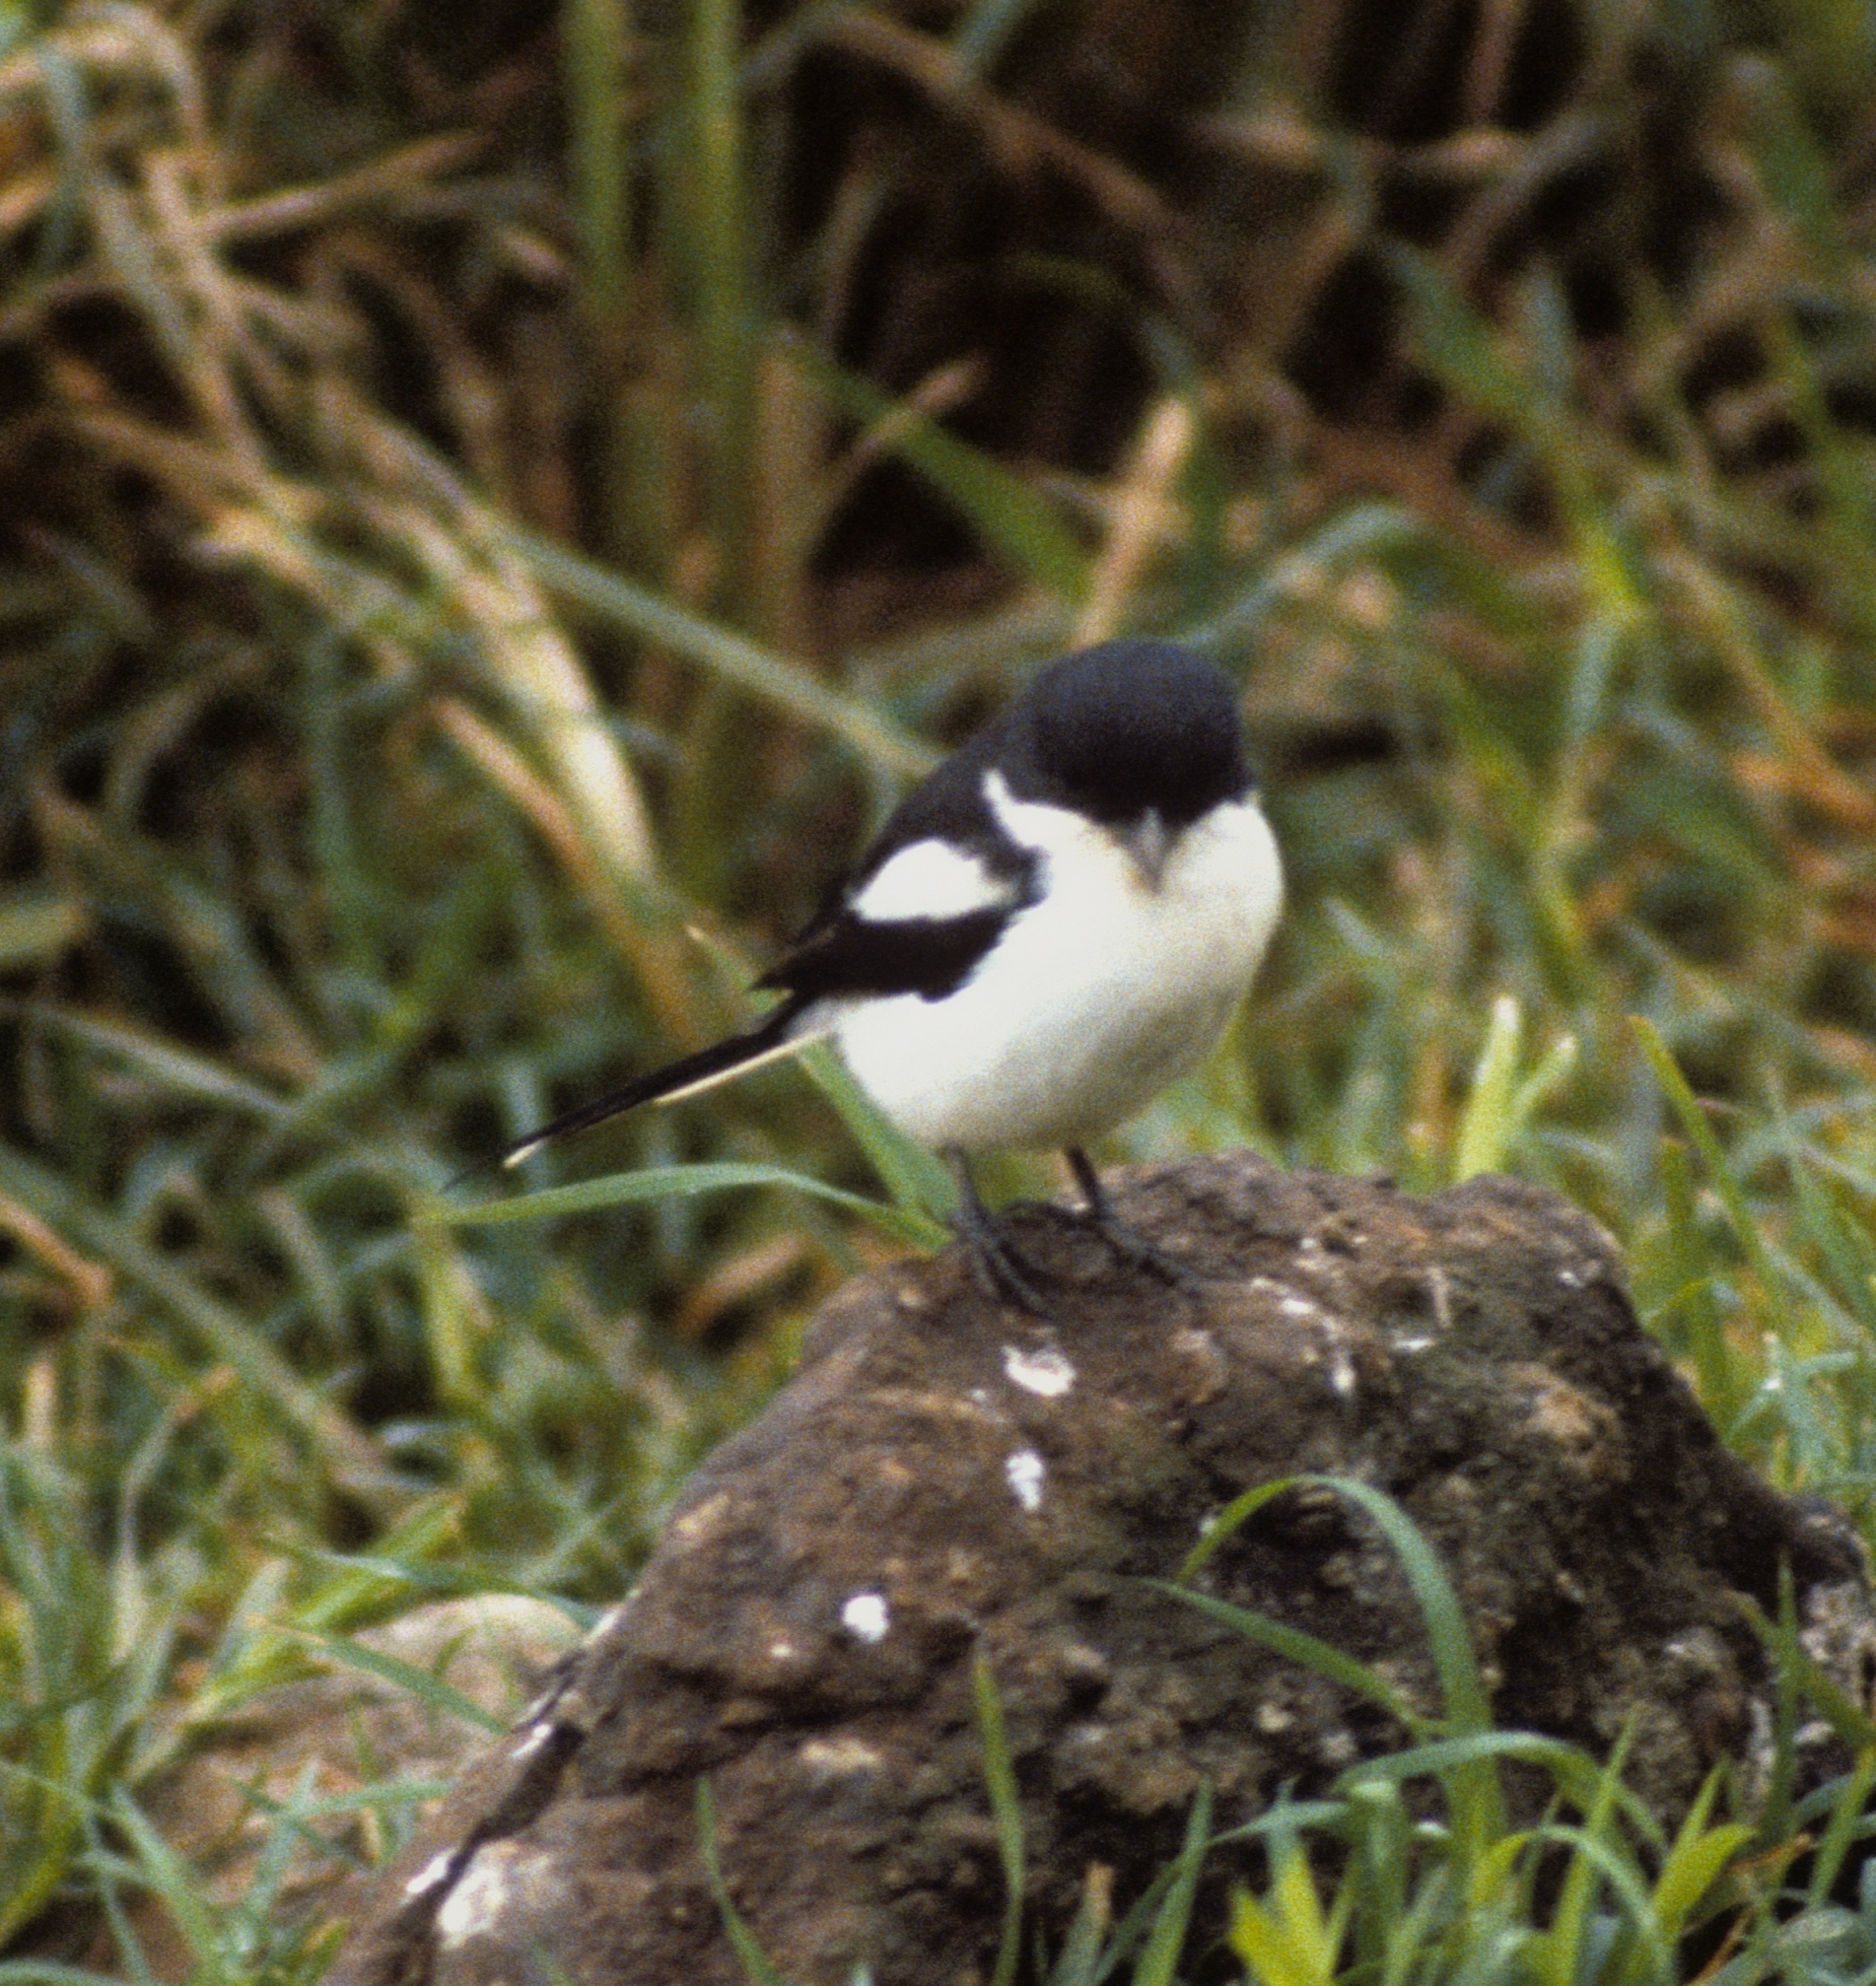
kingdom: Animalia
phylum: Chordata
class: Aves
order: Passeriformes
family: Laniidae
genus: Lanius
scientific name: Lanius humeralis
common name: Northern fiscal
